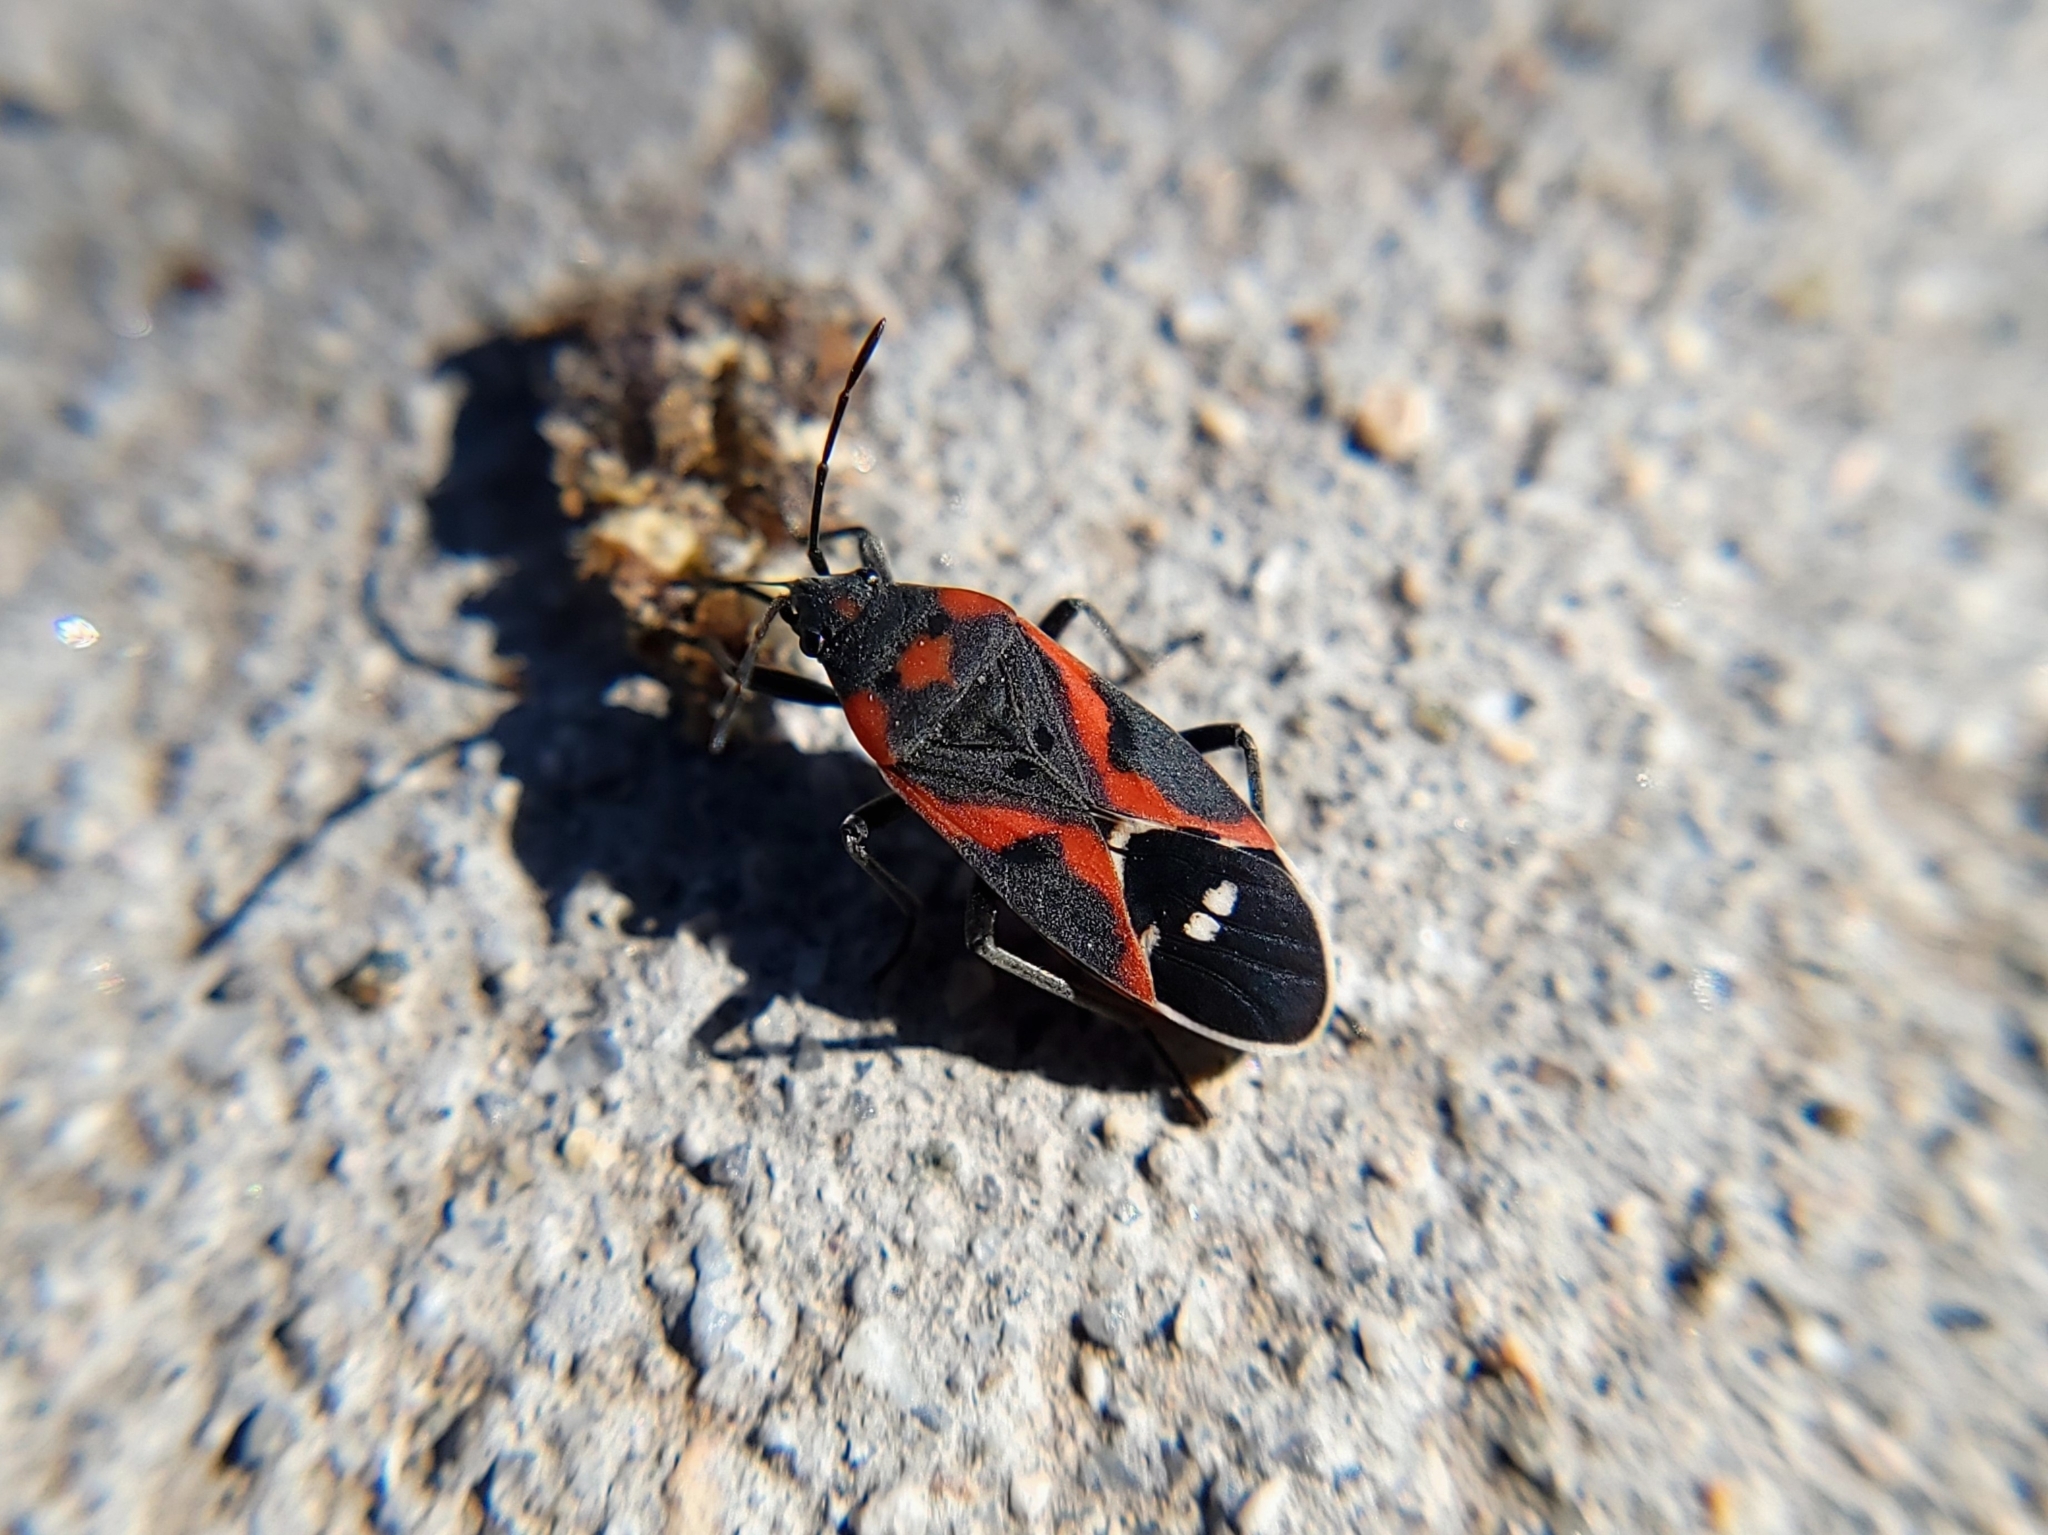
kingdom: Animalia
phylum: Arthropoda
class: Insecta
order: Hemiptera
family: Lygaeidae
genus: Lygaeus
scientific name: Lygaeus kalmii
